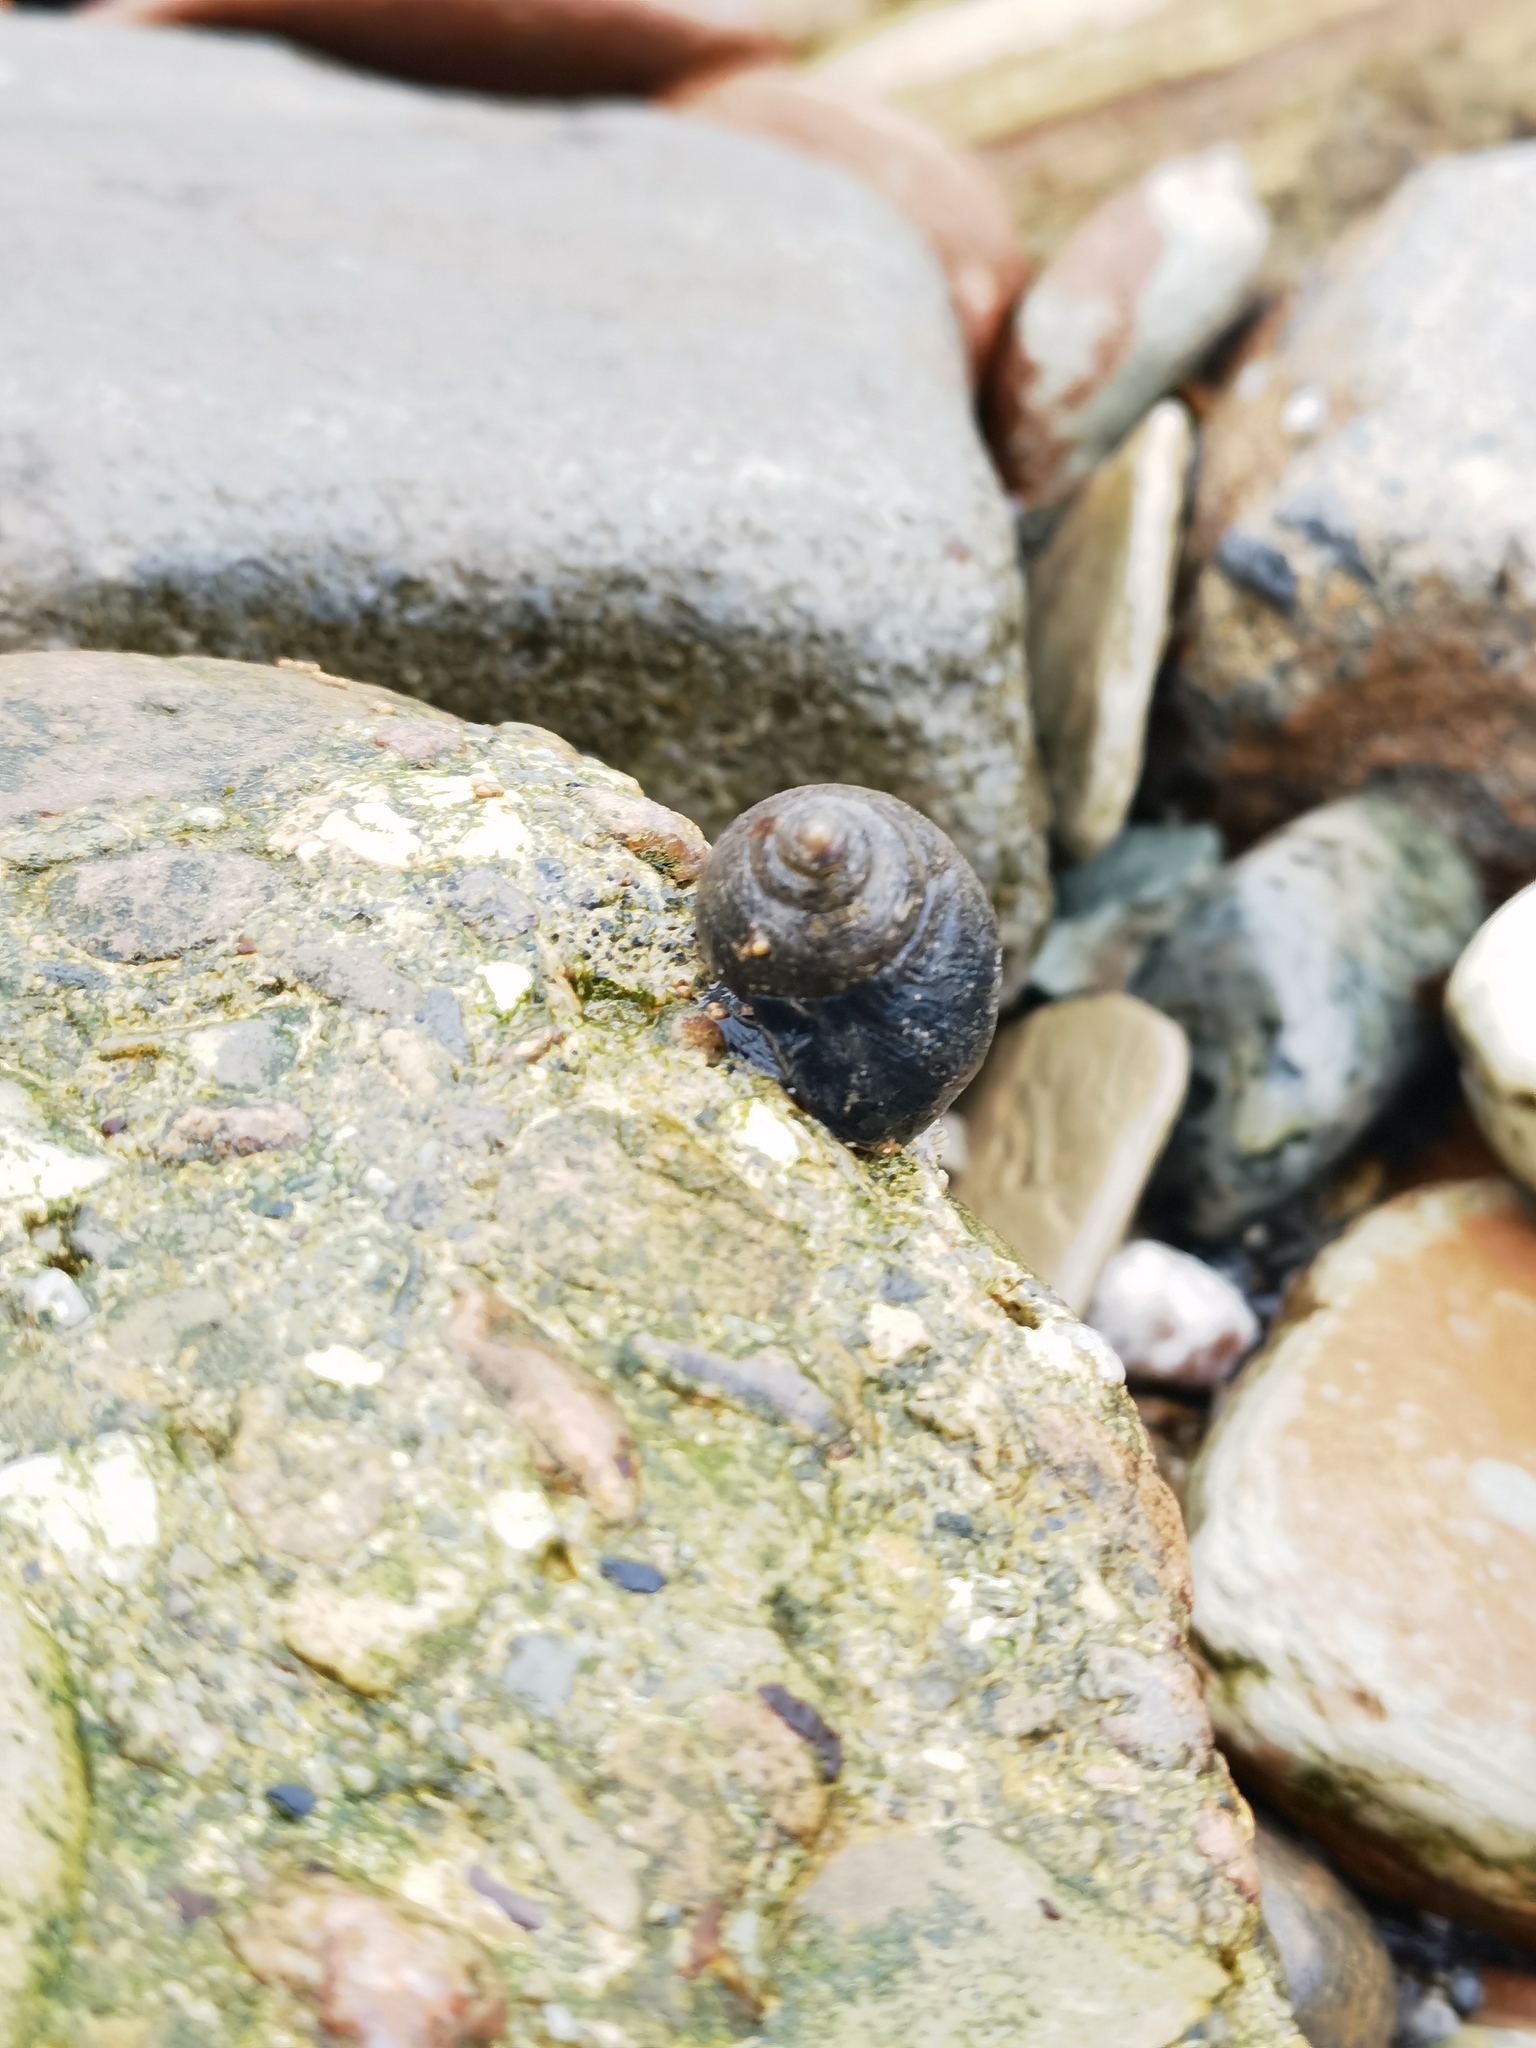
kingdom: Animalia
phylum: Mollusca
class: Gastropoda
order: Littorinimorpha
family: Littorinidae
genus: Littorina
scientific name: Littorina littorea
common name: Common periwinkle
